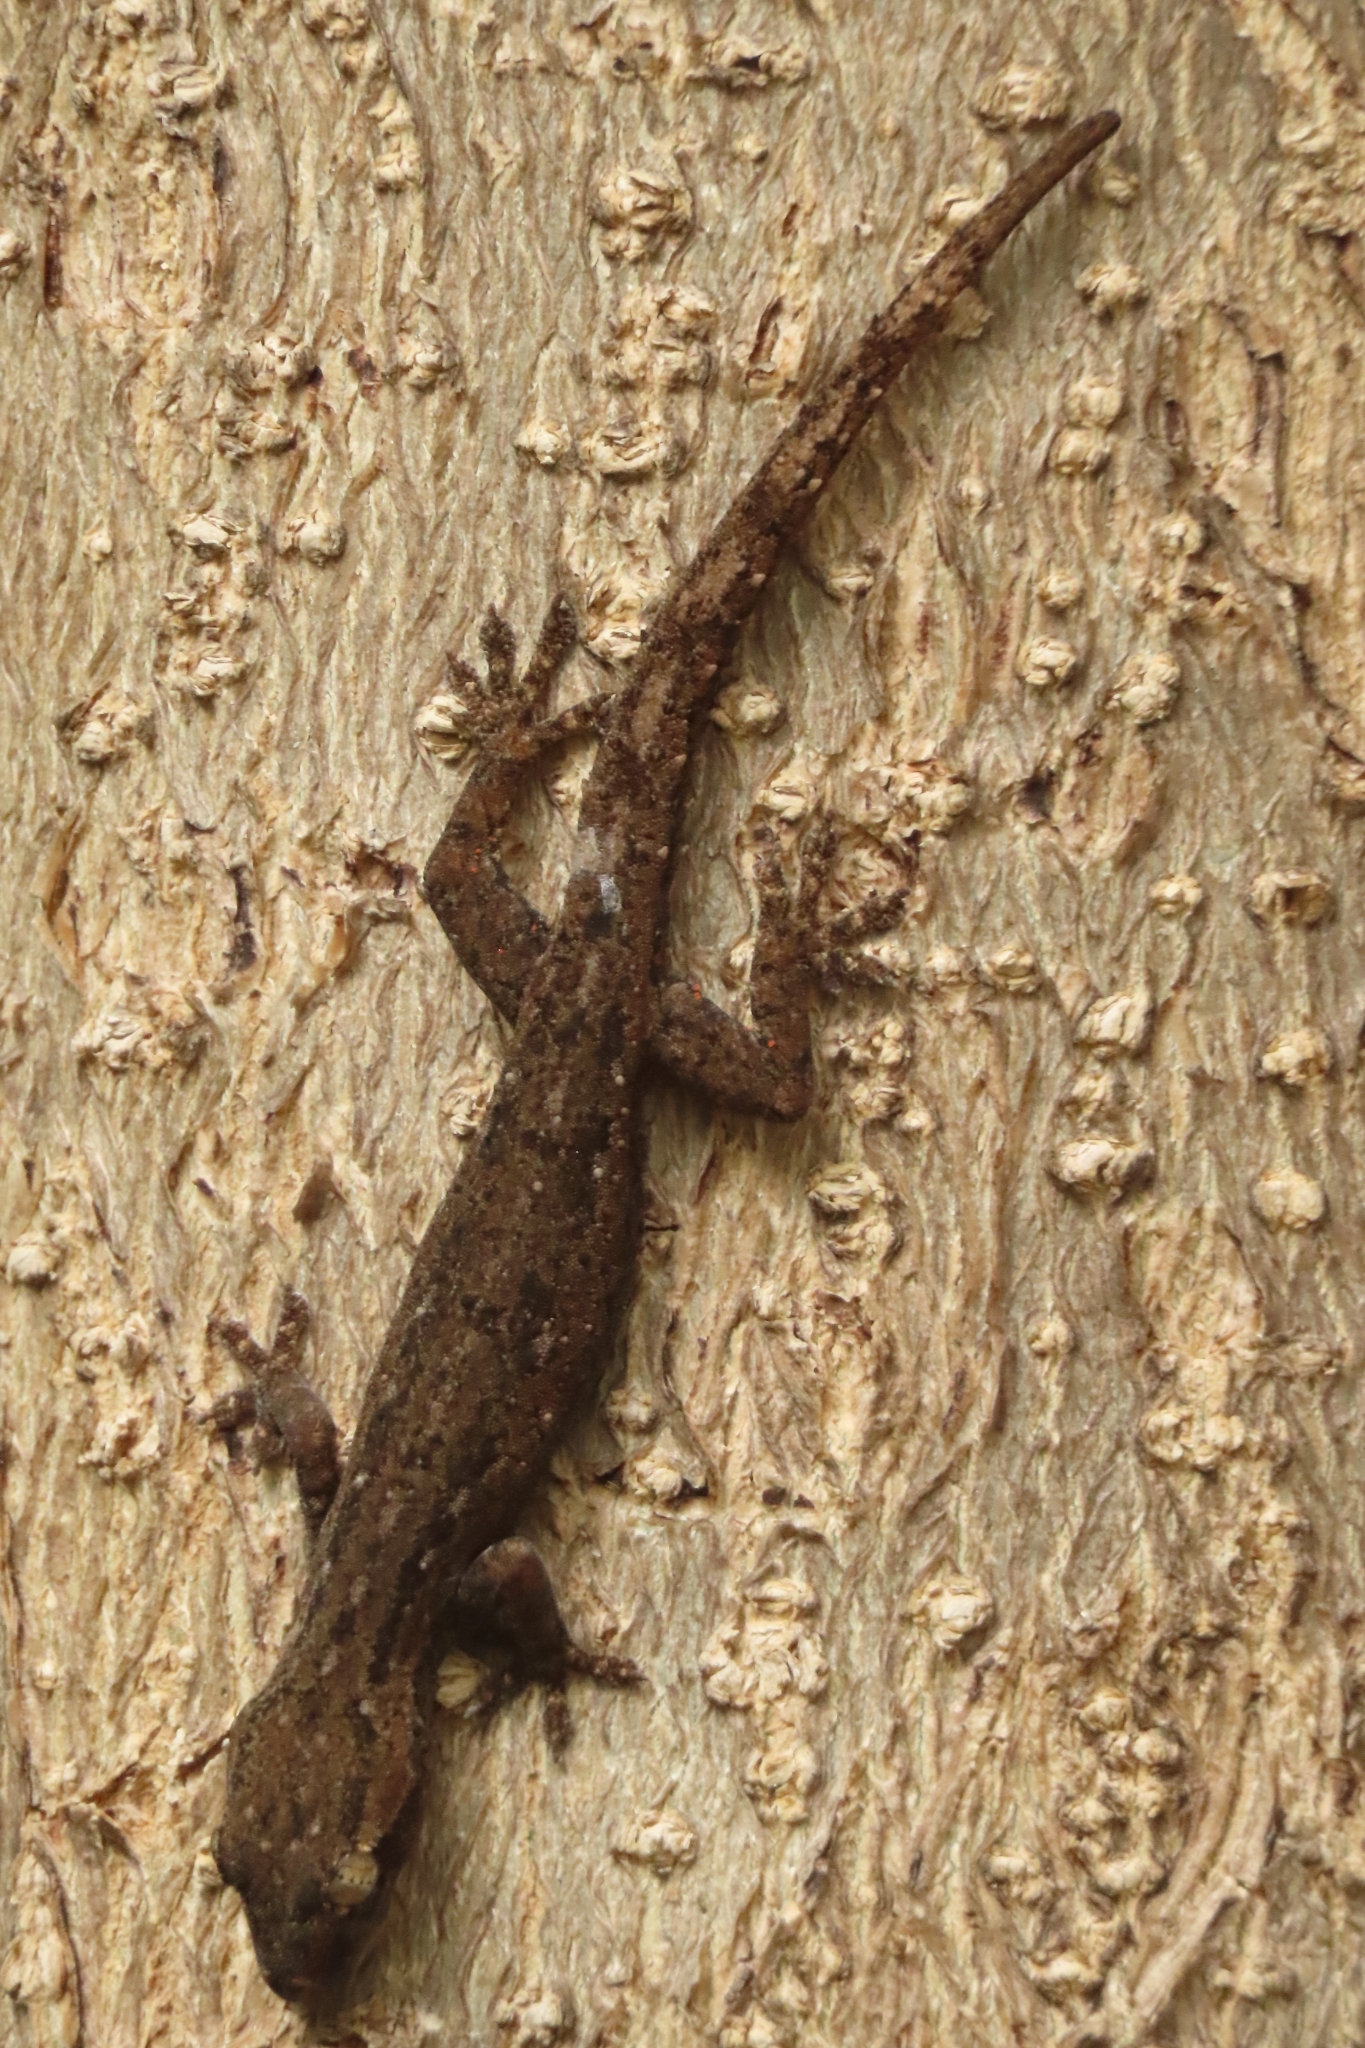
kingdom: Animalia
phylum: Chordata
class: Squamata
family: Gekkonidae
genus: Hemidactylus
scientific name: Hemidactylus frenatus
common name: Common house gecko
